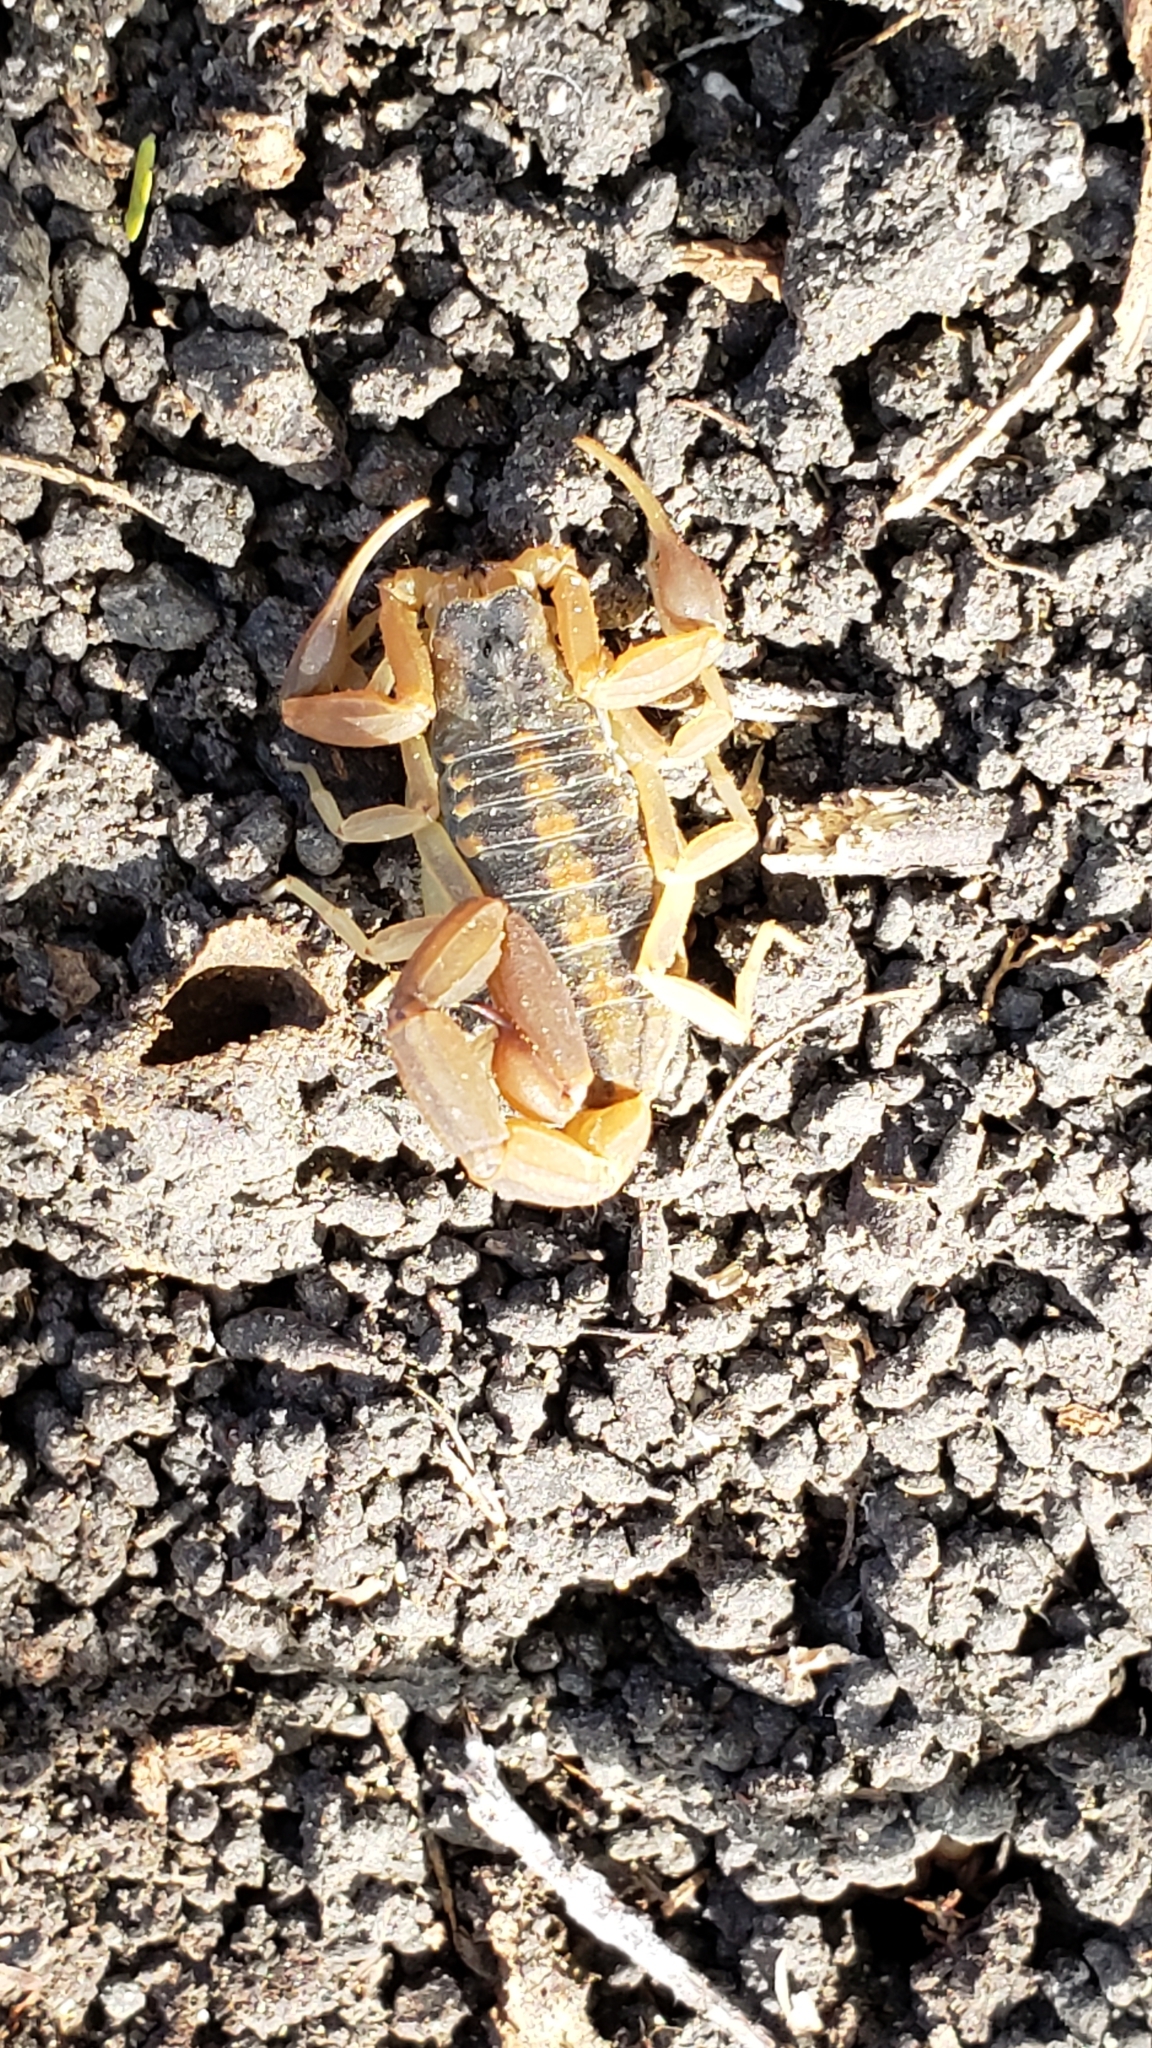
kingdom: Animalia
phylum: Arthropoda
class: Arachnida
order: Scorpiones
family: Buthidae
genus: Centruroides
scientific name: Centruroides vittatus
